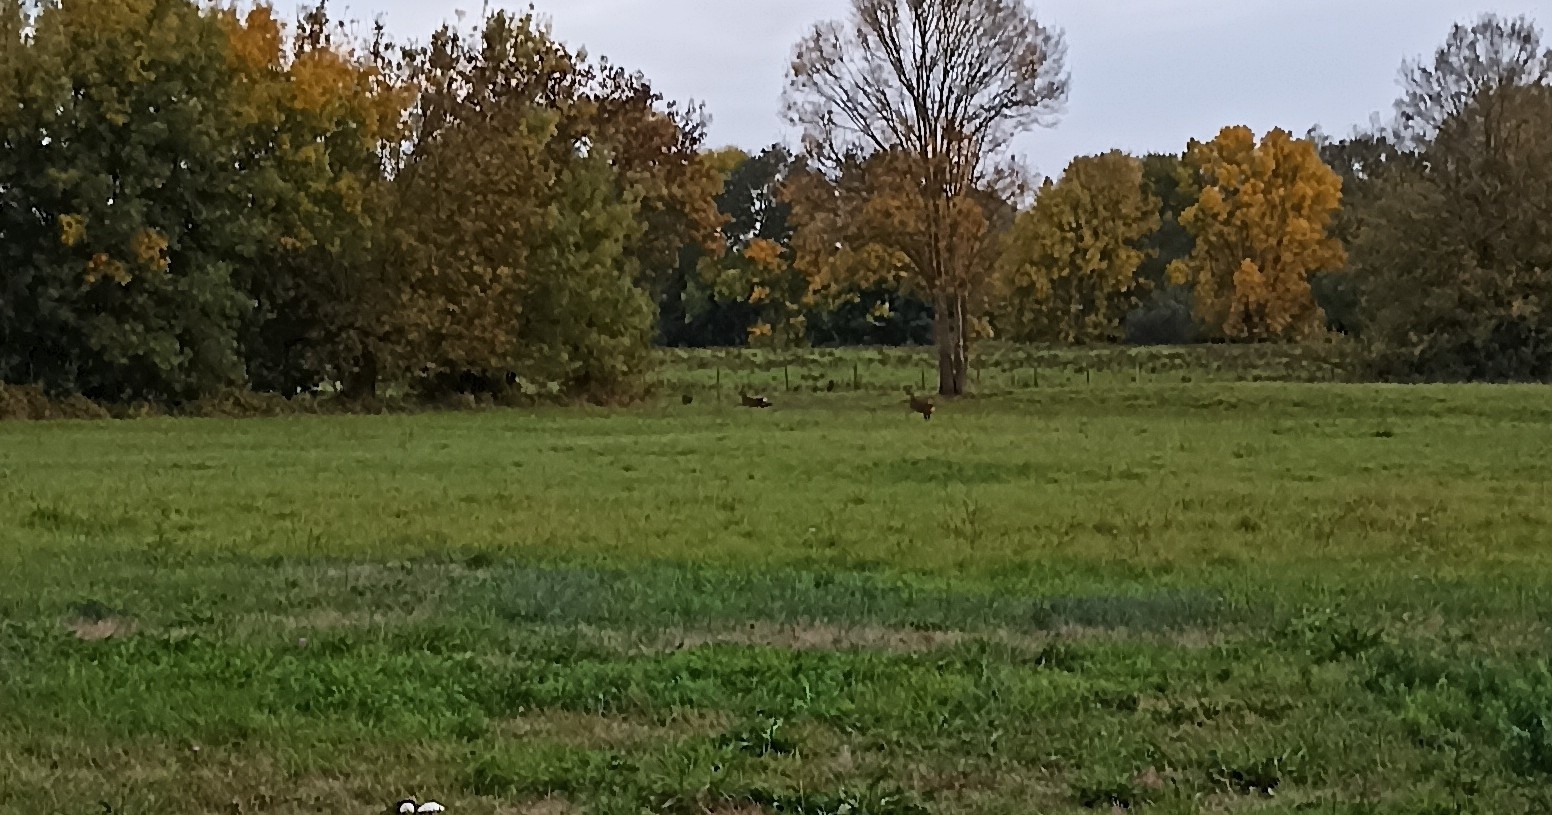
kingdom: Animalia
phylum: Chordata
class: Mammalia
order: Artiodactyla
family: Cervidae
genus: Capreolus
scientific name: Capreolus capreolus
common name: Western roe deer
